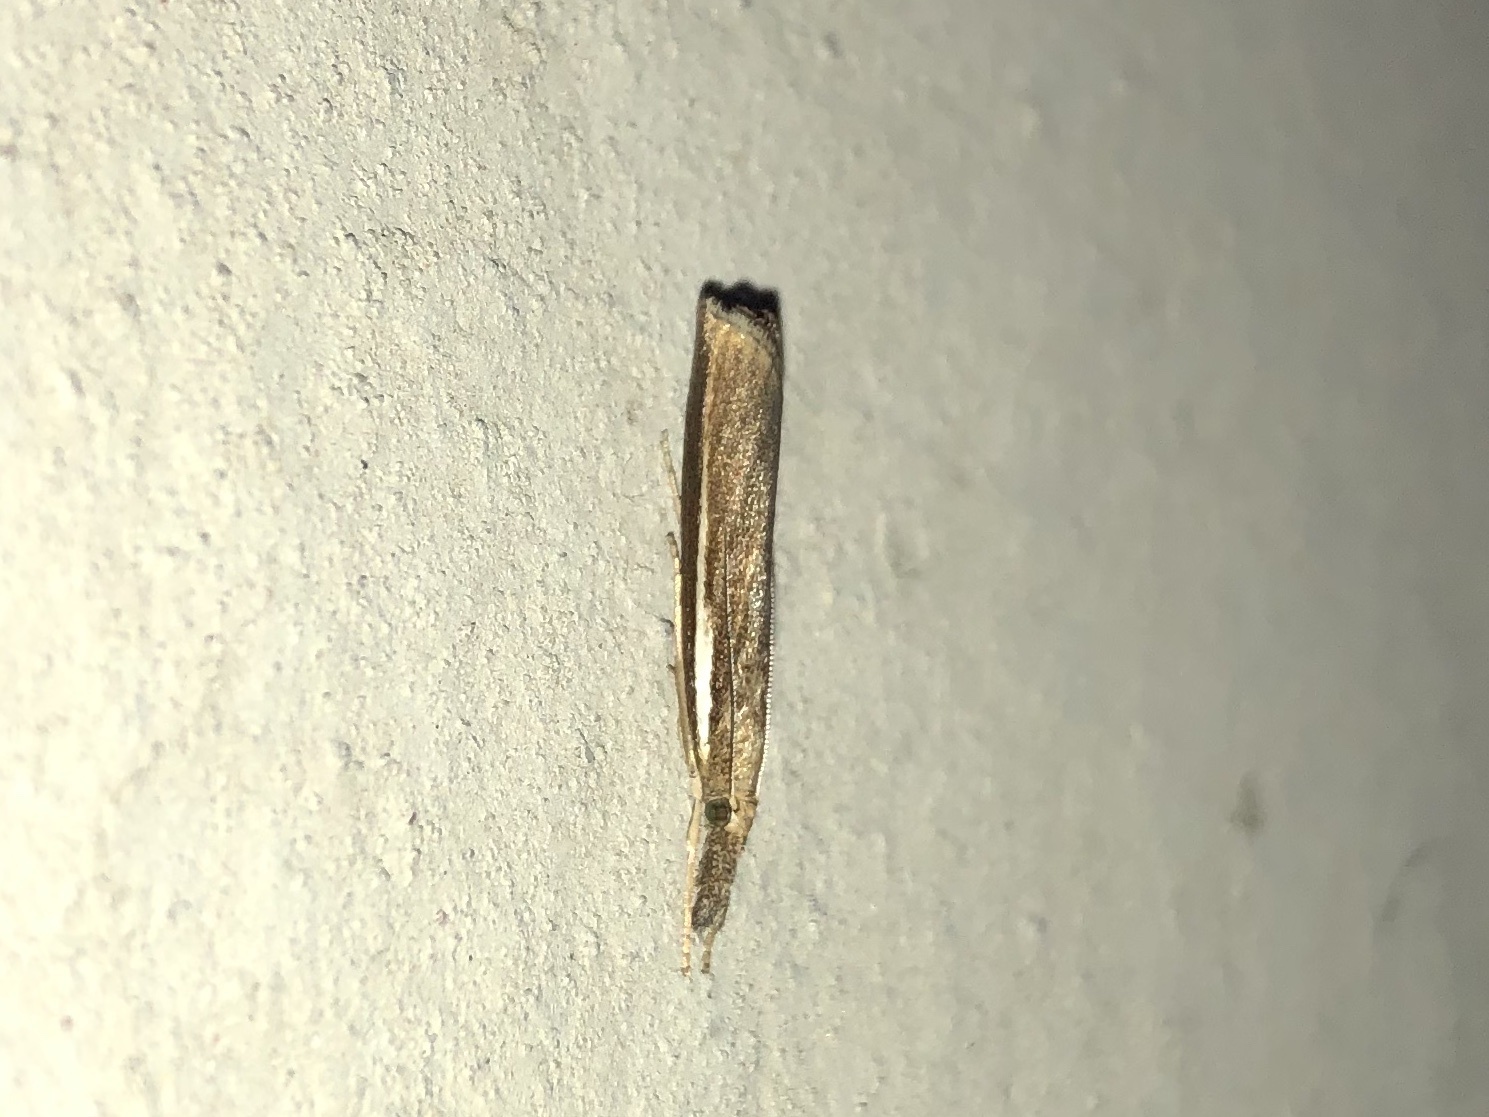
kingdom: Animalia
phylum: Arthropoda
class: Insecta
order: Lepidoptera
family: Crambidae
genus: Agriphila
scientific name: Agriphila tristellus
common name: Common grass-veneer
